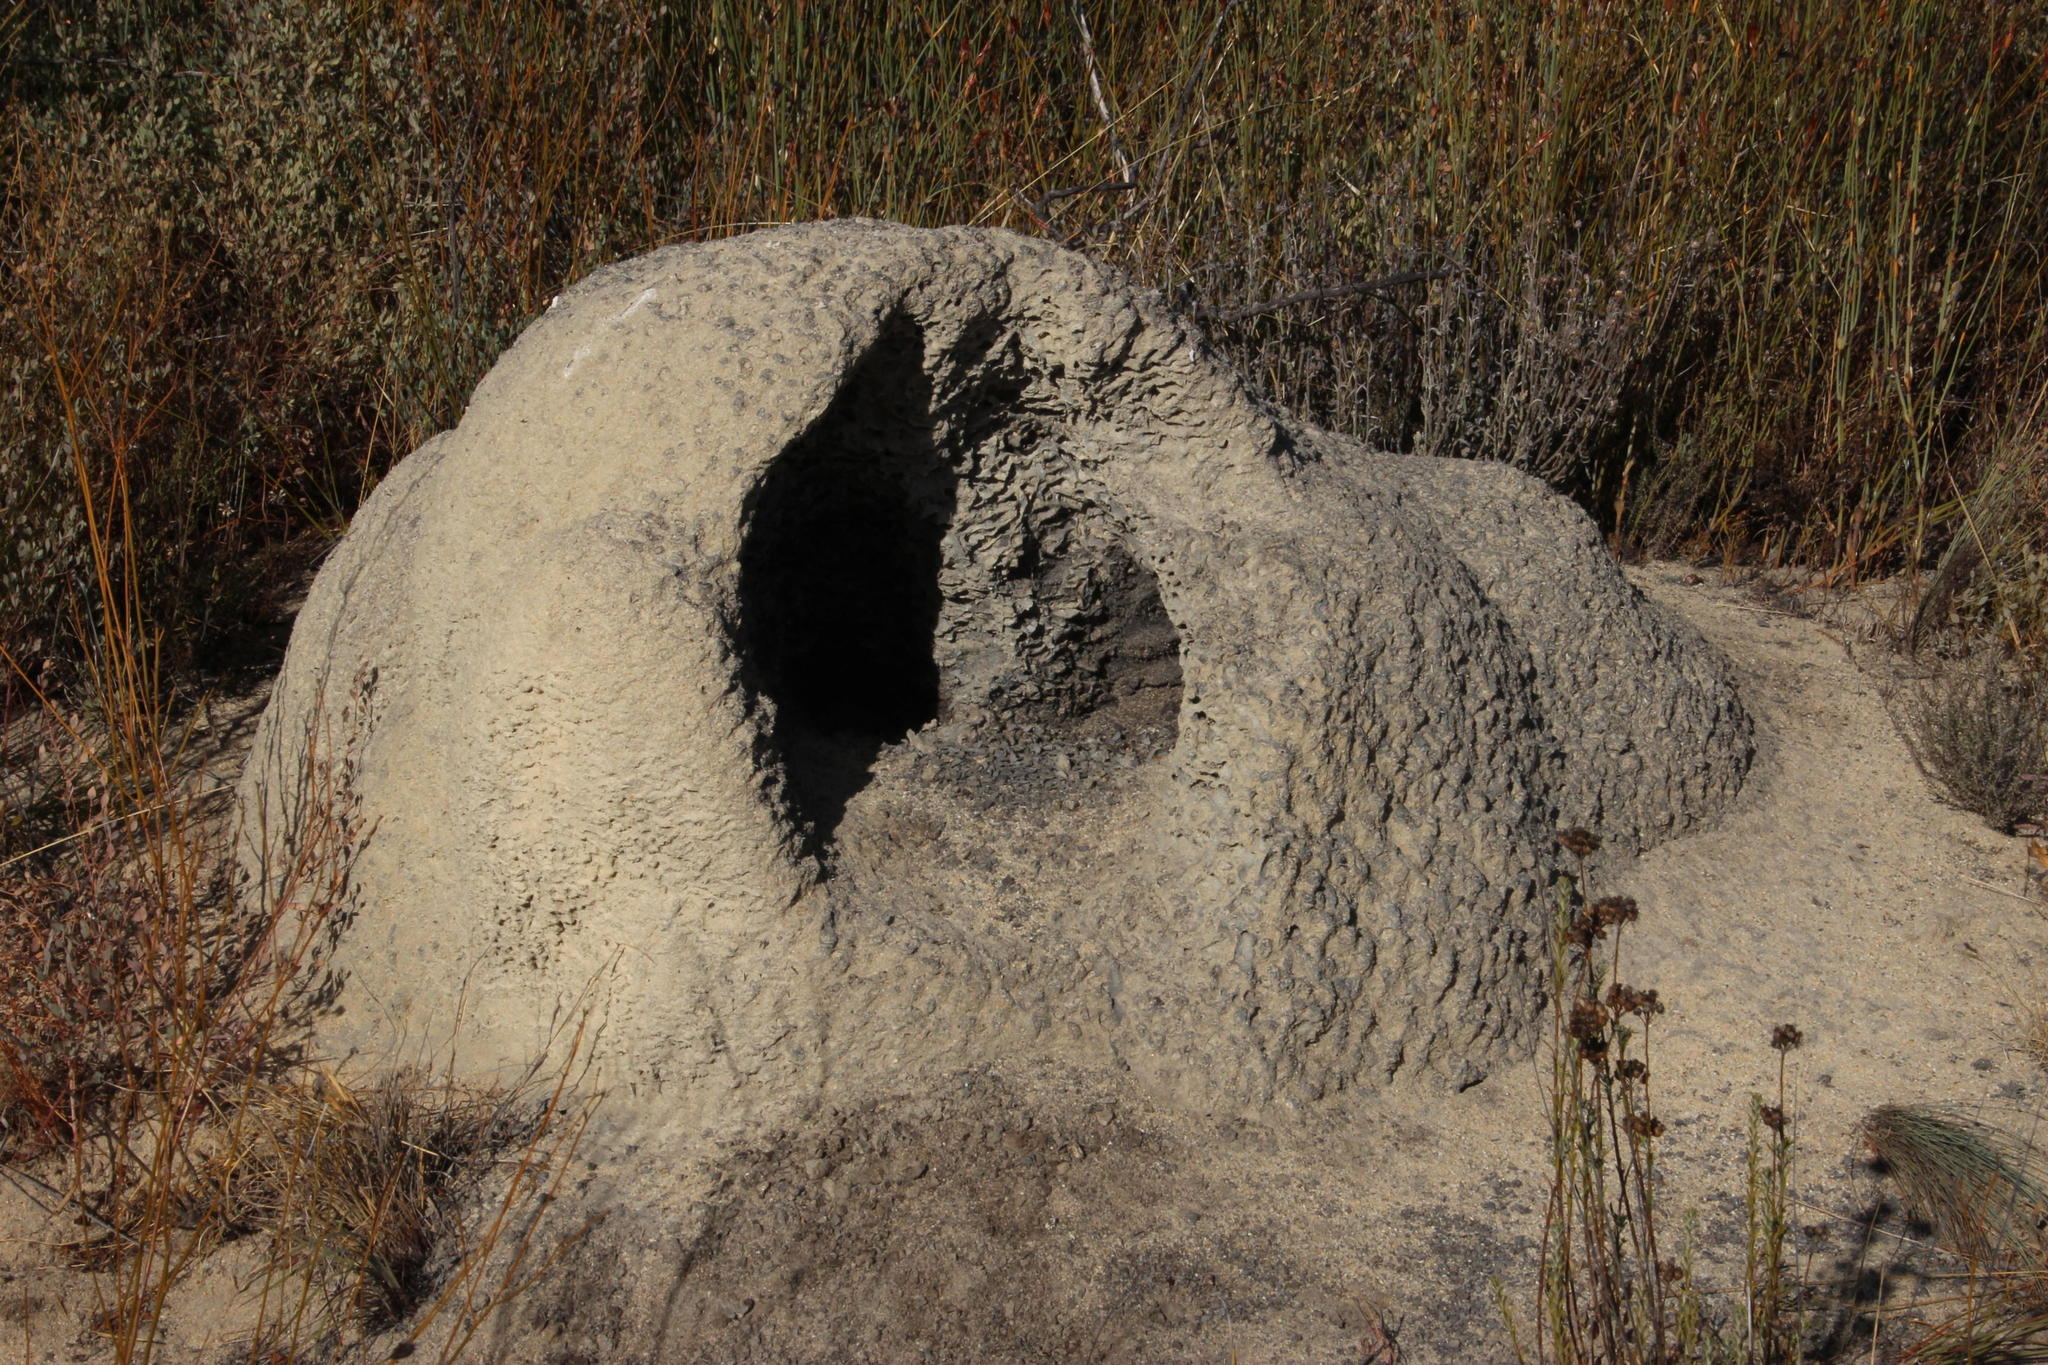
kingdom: Animalia
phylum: Chordata
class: Mammalia
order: Tubulidentata
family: Orycteropodidae
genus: Orycteropus
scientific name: Orycteropus afer
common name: Aardvark
